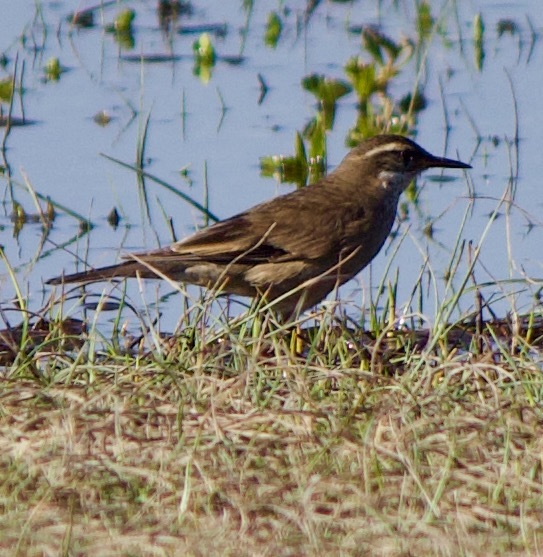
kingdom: Animalia
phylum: Chordata
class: Aves
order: Passeriformes
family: Furnariidae
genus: Cinclodes
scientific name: Cinclodes fuscus
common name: Buff-winged cinclodes
